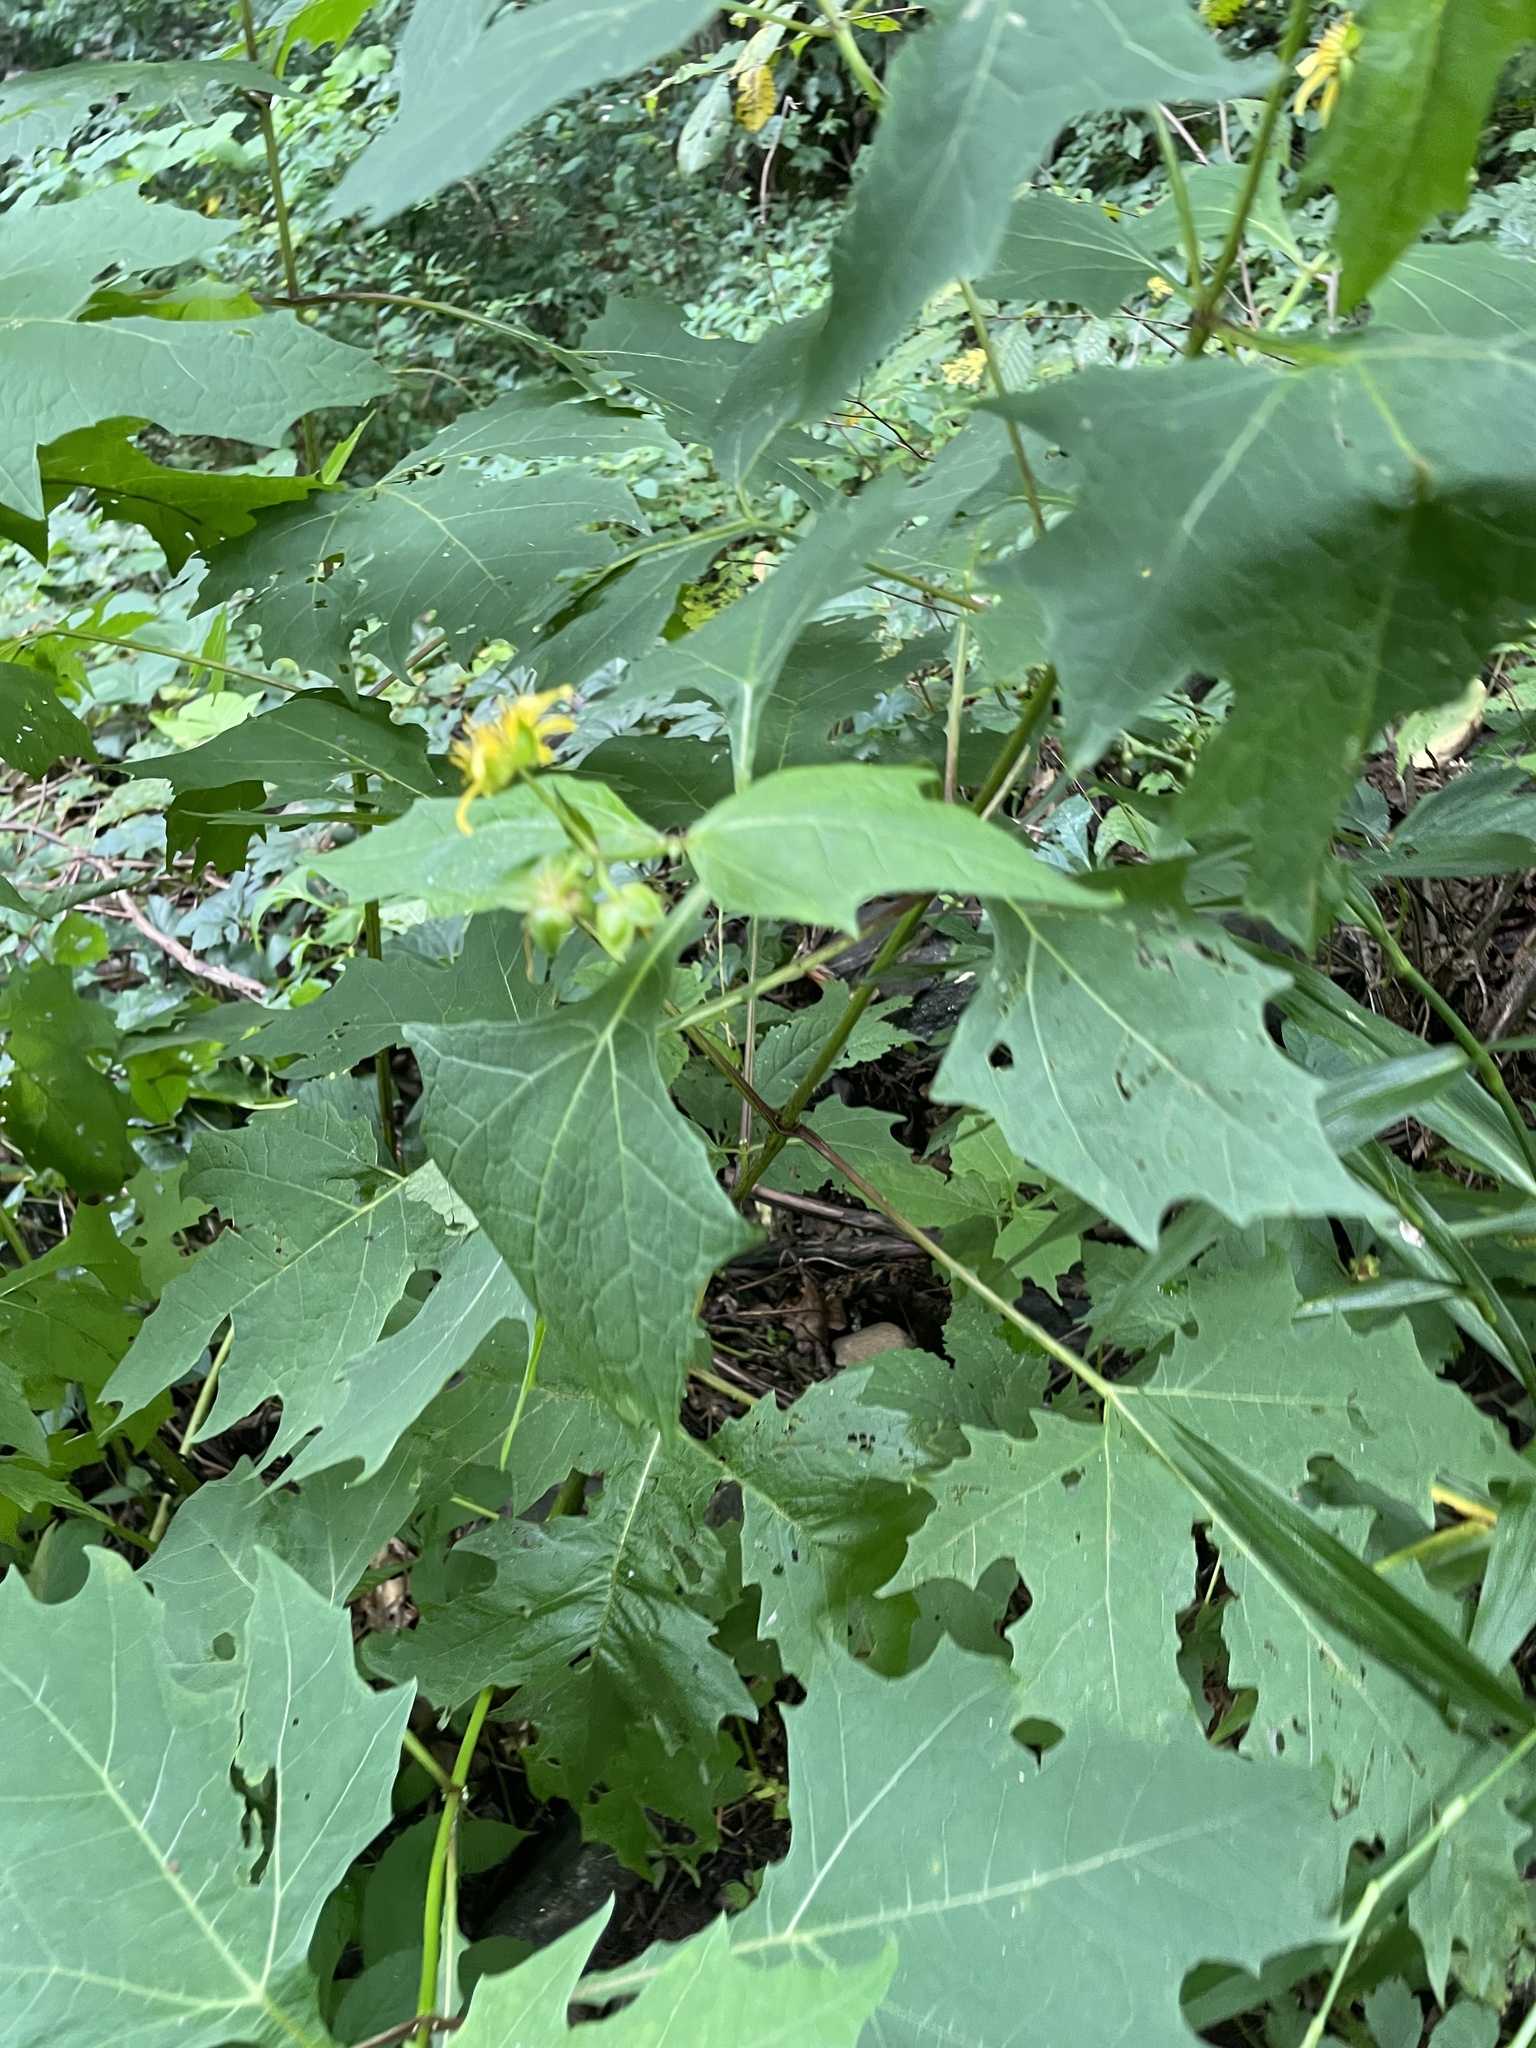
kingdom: Plantae
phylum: Tracheophyta
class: Magnoliopsida
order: Asterales
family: Asteraceae
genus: Smallanthus
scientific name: Smallanthus uvedalia
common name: Bear's-foot
